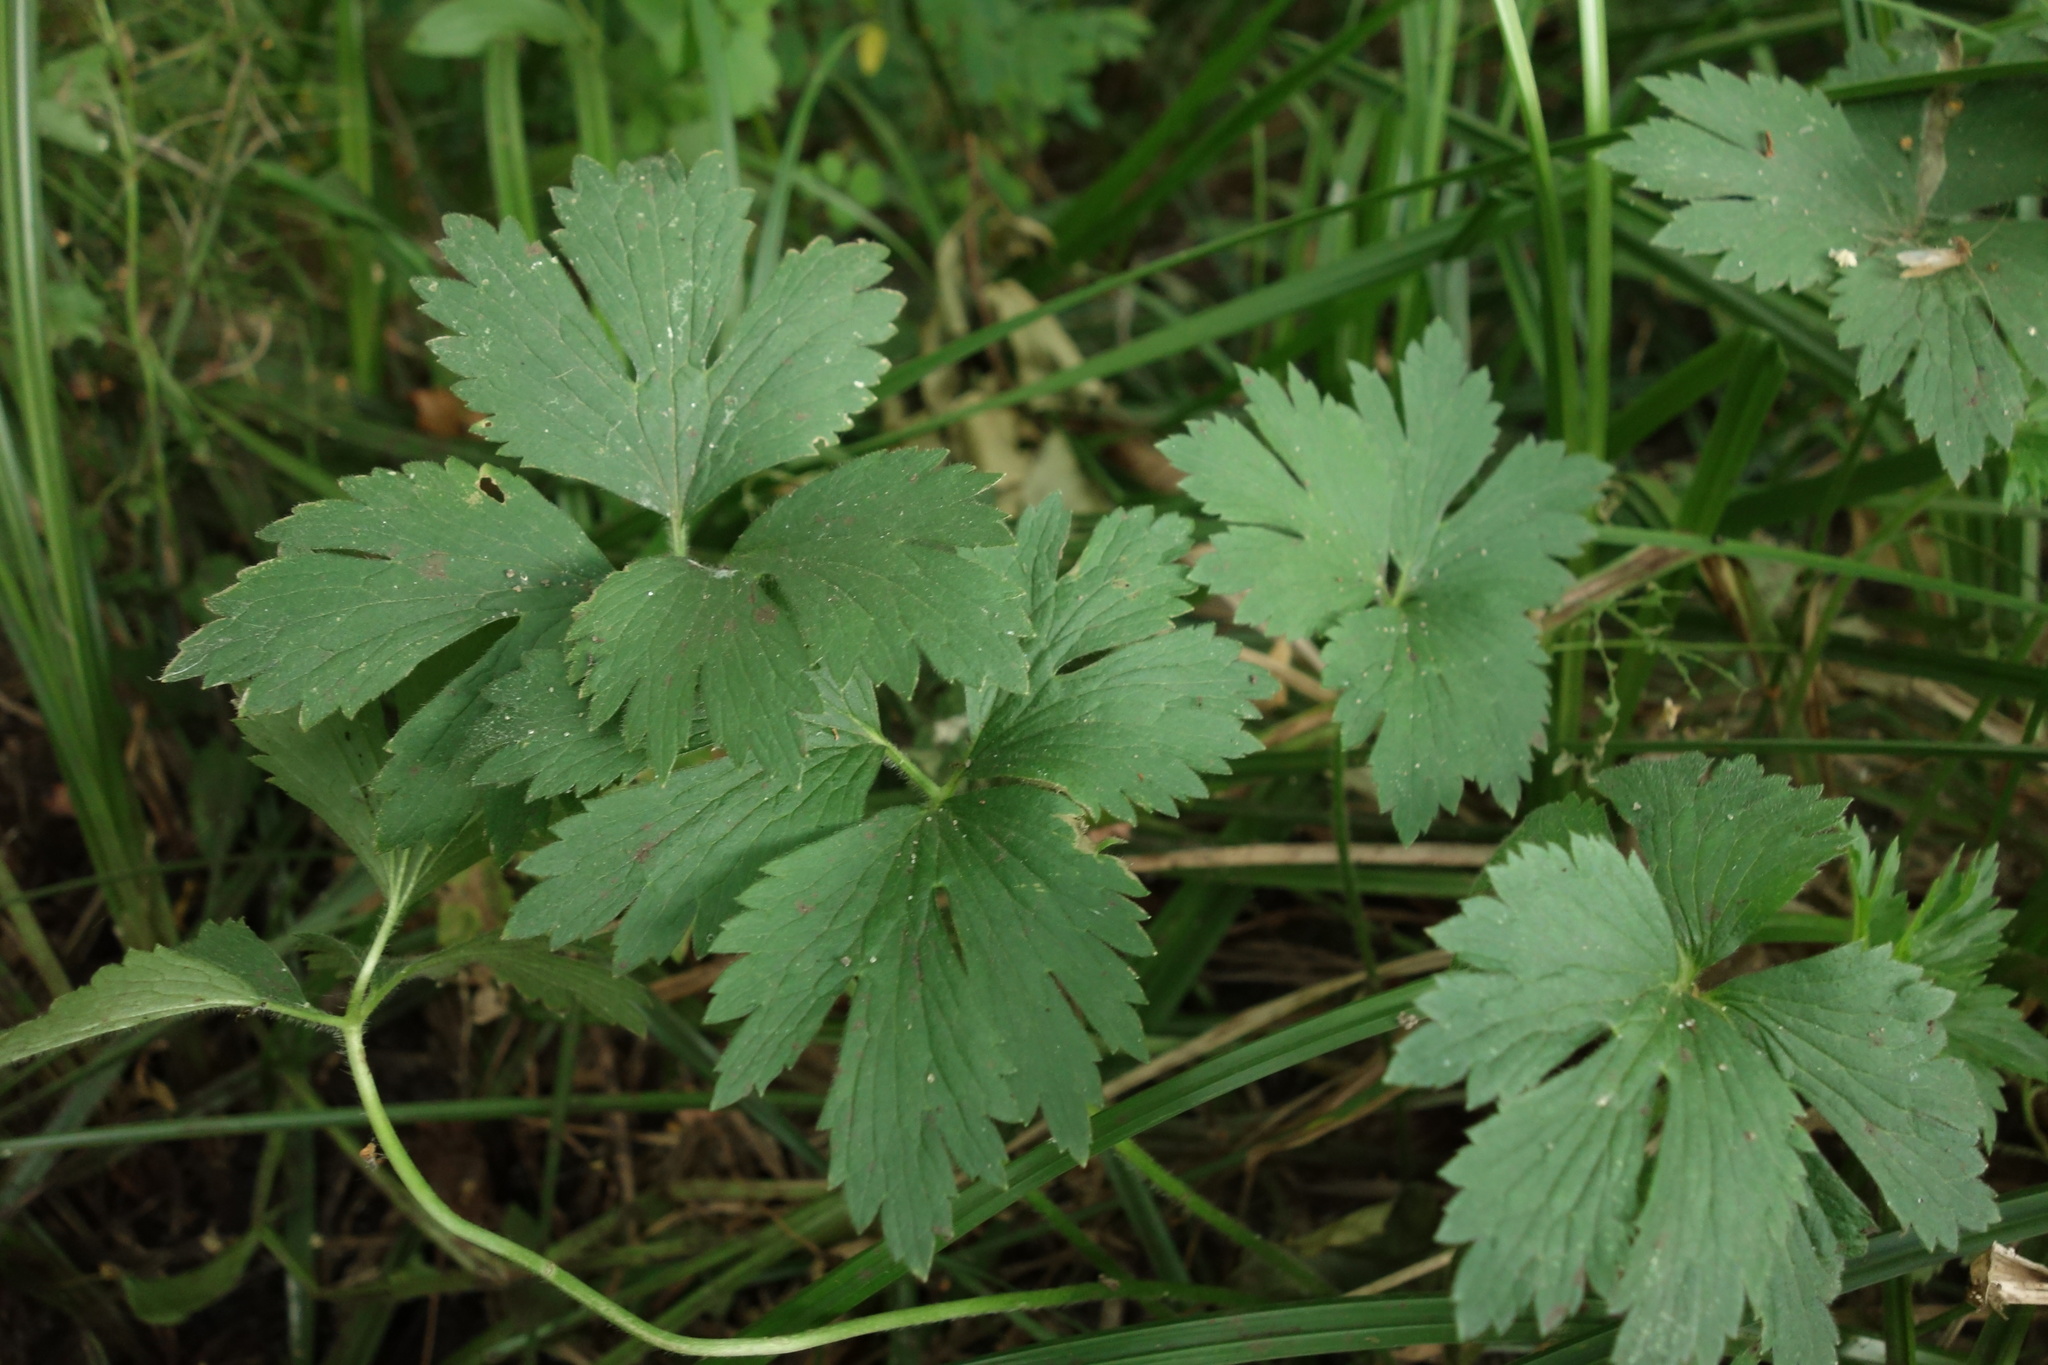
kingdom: Plantae
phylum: Tracheophyta
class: Magnoliopsida
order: Ranunculales
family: Ranunculaceae
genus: Ranunculus
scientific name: Ranunculus repens
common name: Creeping buttercup
